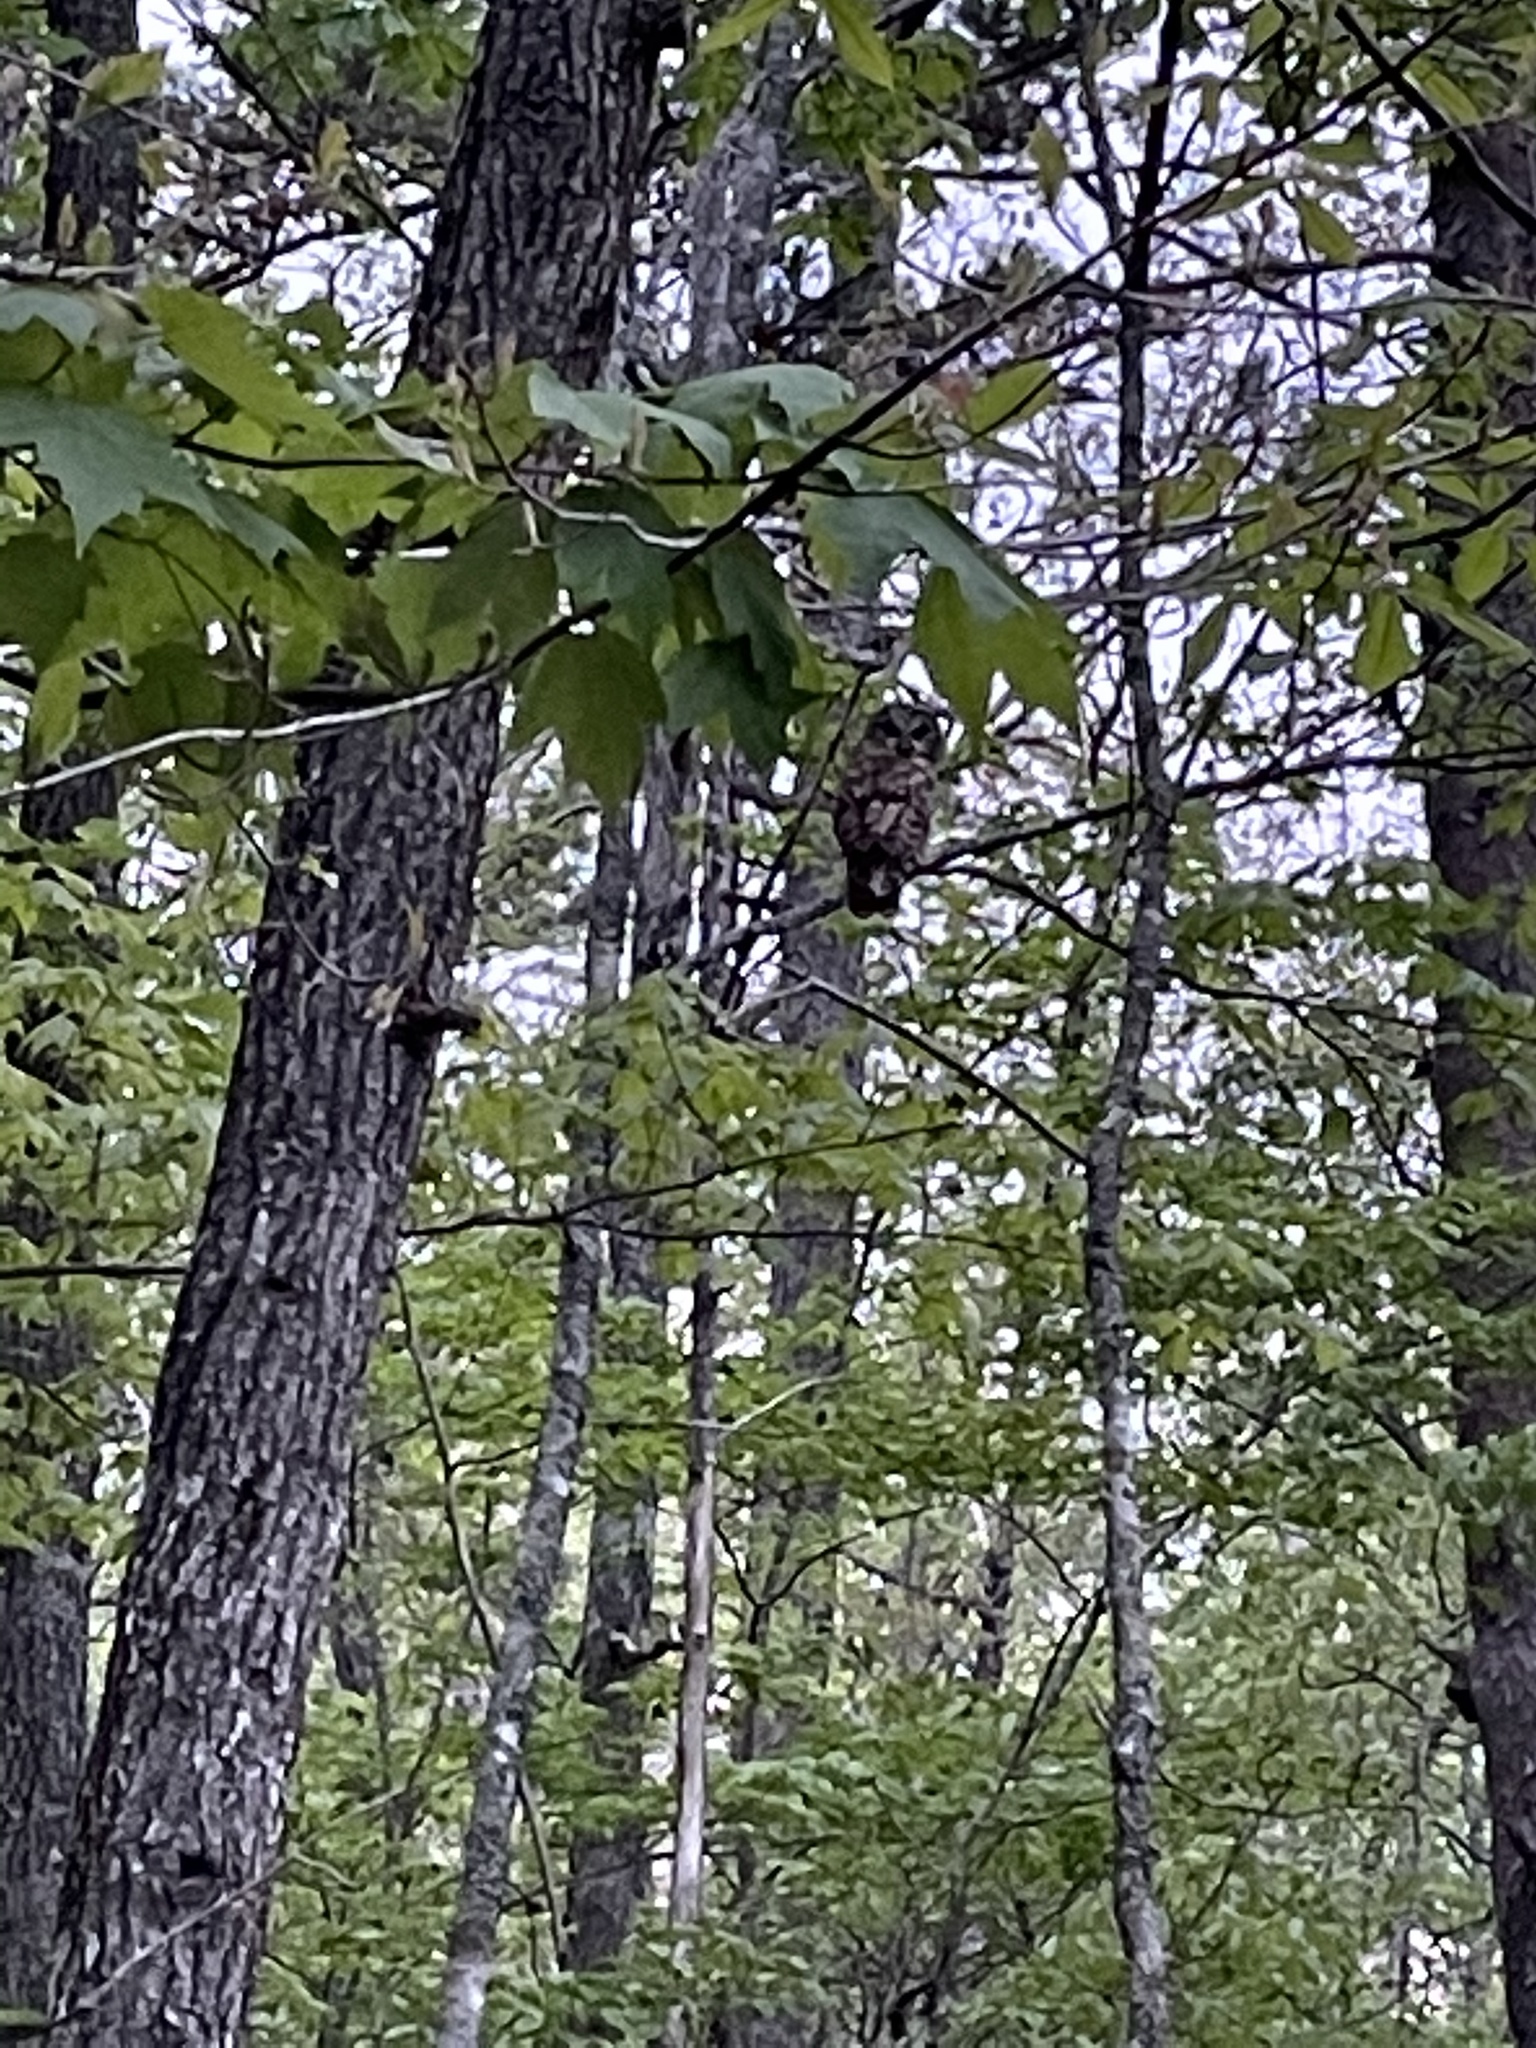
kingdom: Animalia
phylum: Chordata
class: Aves
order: Strigiformes
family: Strigidae
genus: Strix
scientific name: Strix varia
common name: Barred owl
